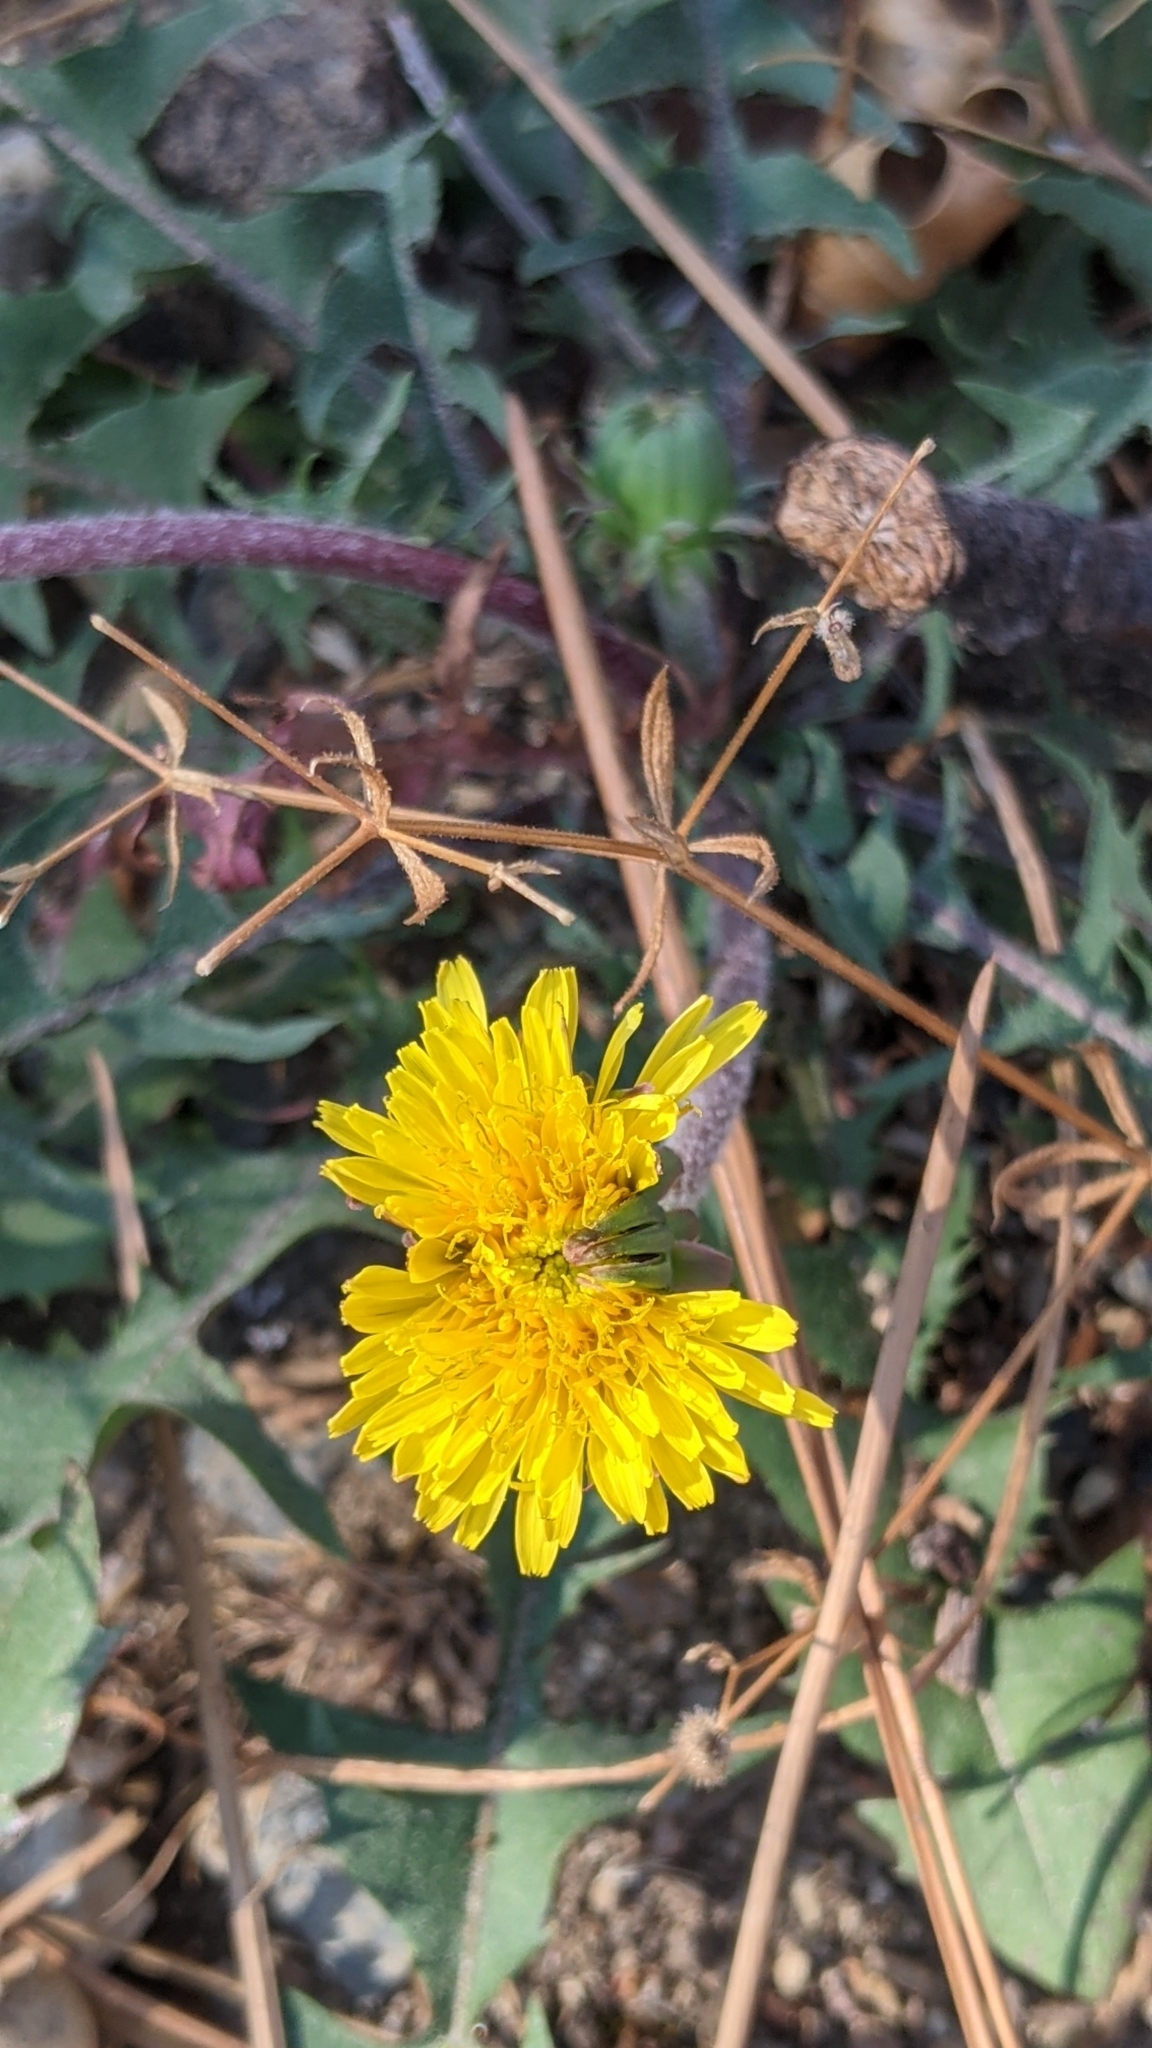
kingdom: Plantae
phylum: Tracheophyta
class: Magnoliopsida
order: Asterales
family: Asteraceae
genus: Taraxacum
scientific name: Taraxacum erythrospermum
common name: Rock dandelion
